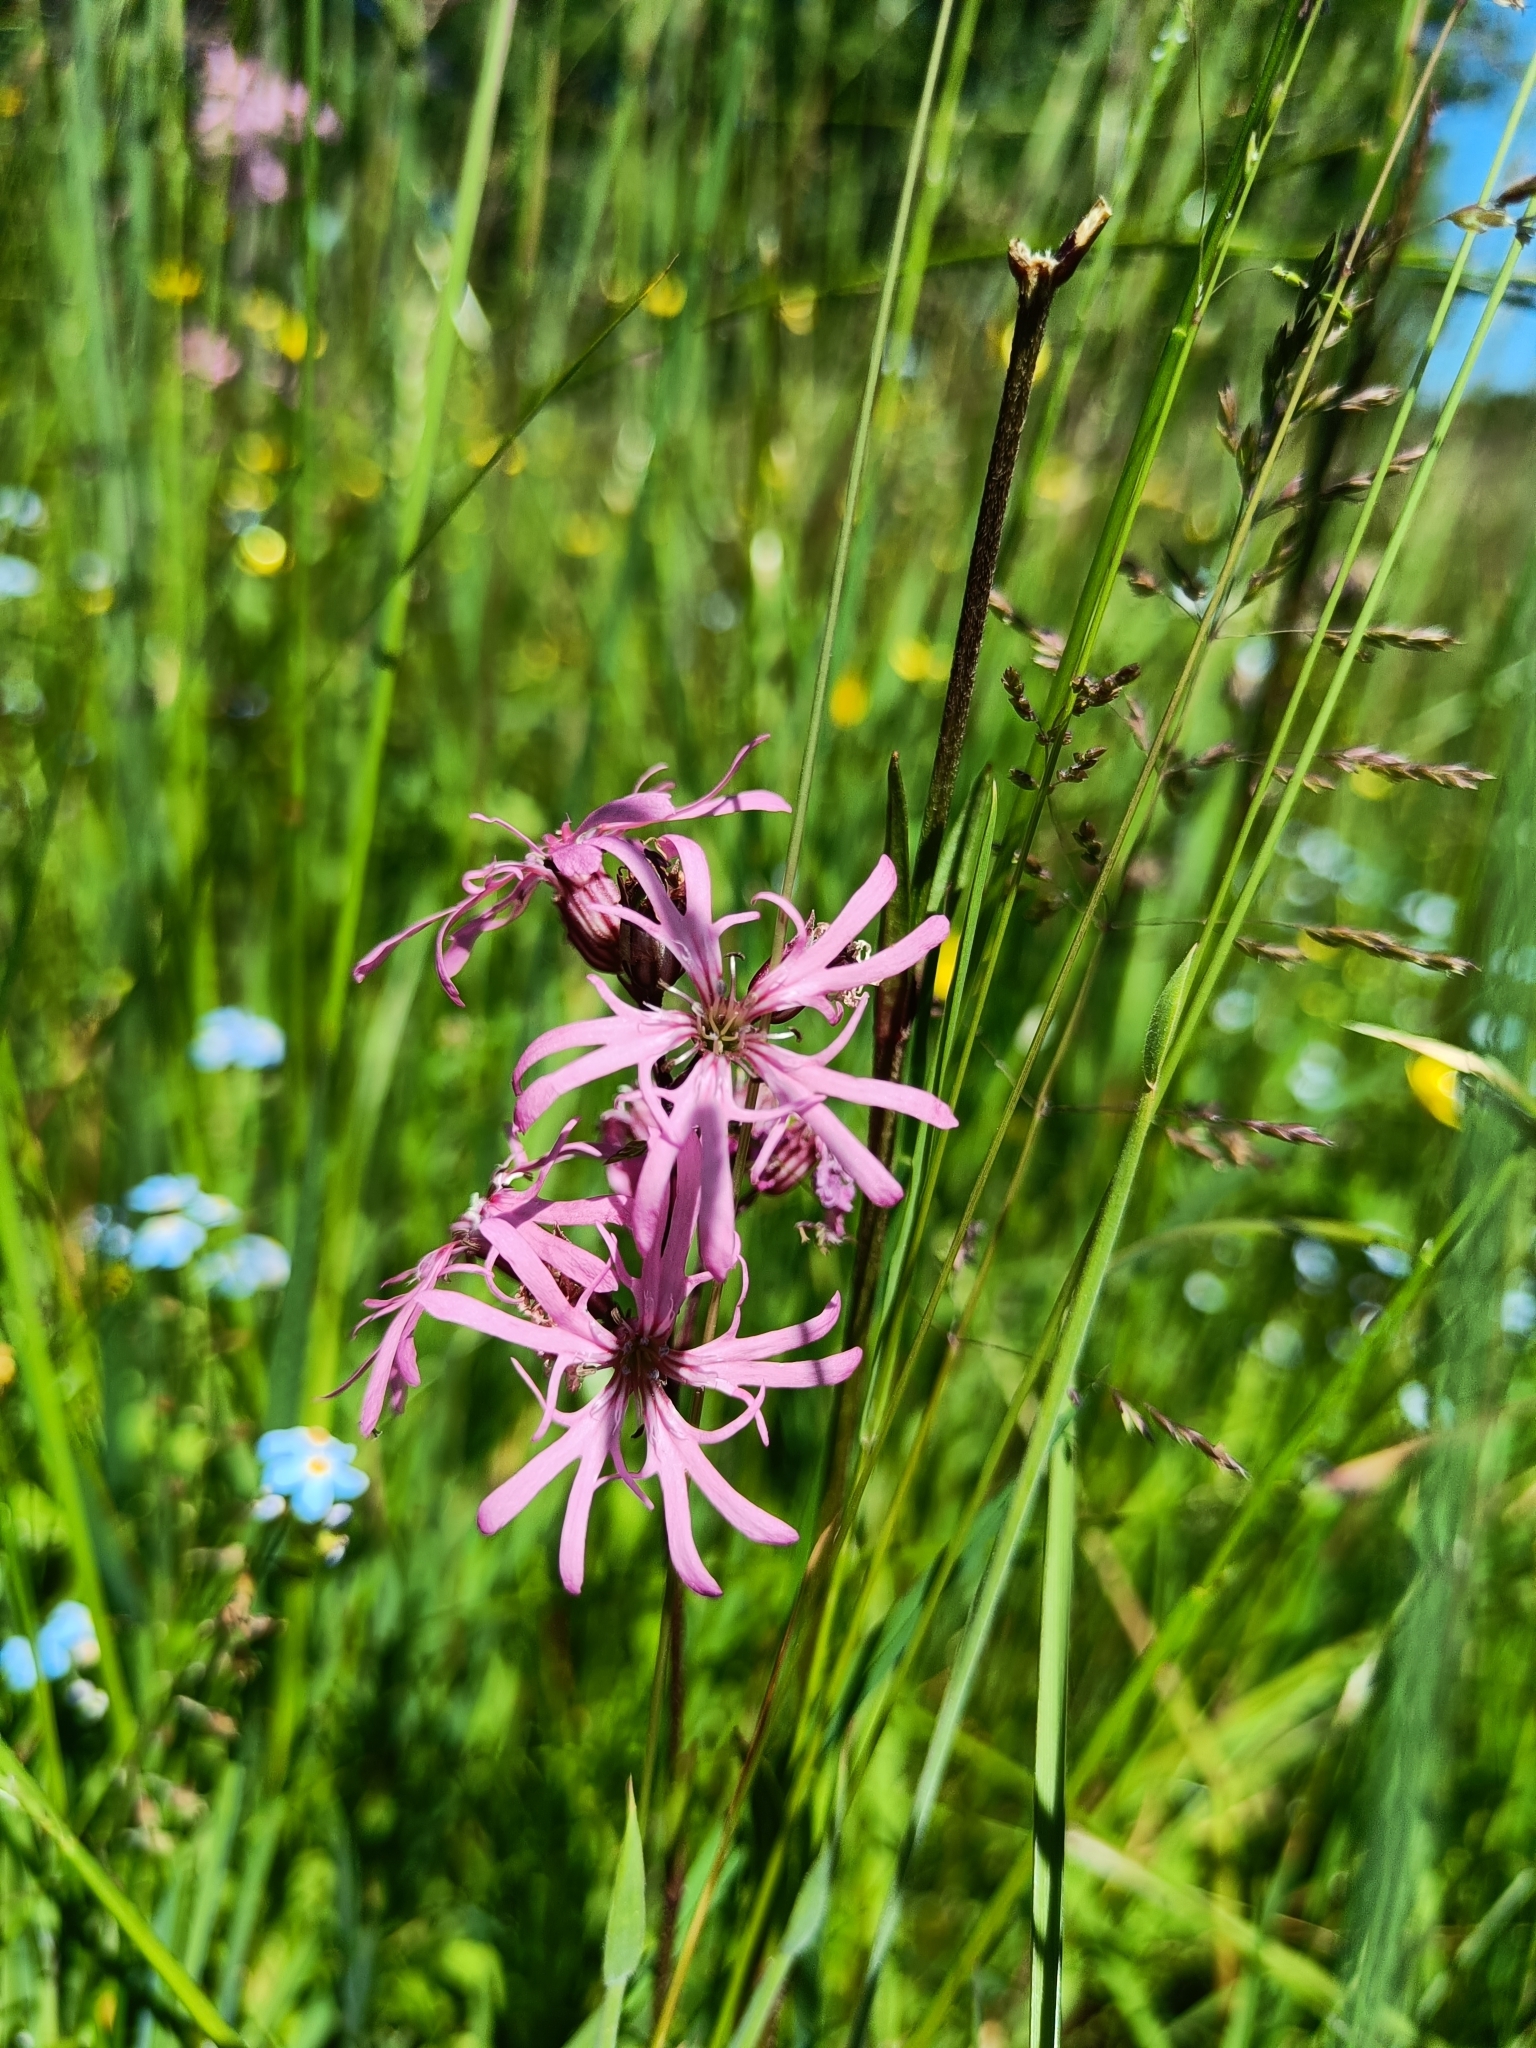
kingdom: Plantae
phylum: Tracheophyta
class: Magnoliopsida
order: Caryophyllales
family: Caryophyllaceae
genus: Silene
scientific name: Silene flos-cuculi
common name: Ragged-robin
